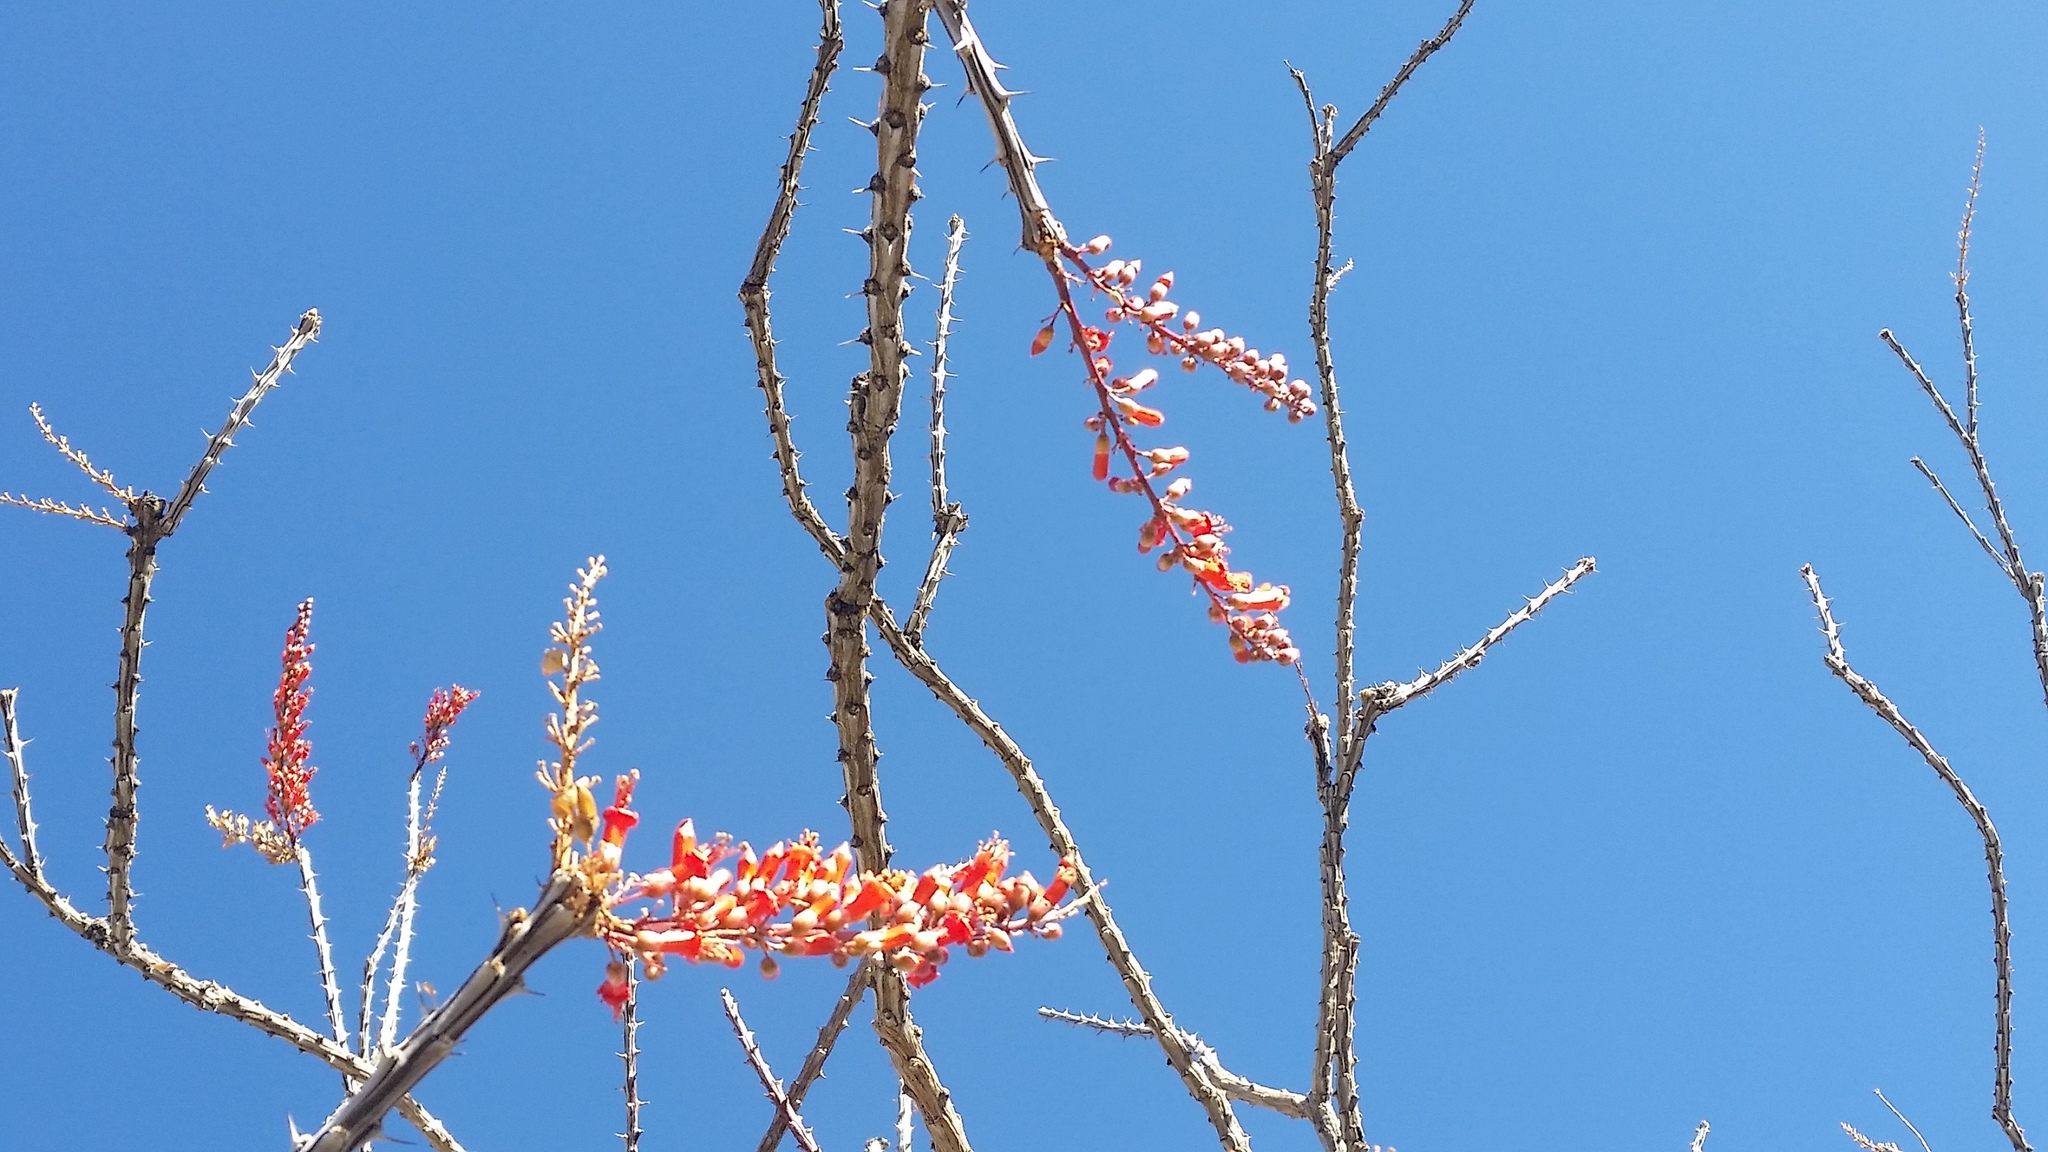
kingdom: Plantae
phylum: Tracheophyta
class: Magnoliopsida
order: Ericales
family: Fouquieriaceae
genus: Fouquieria
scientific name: Fouquieria splendens
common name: Vine-cactus
